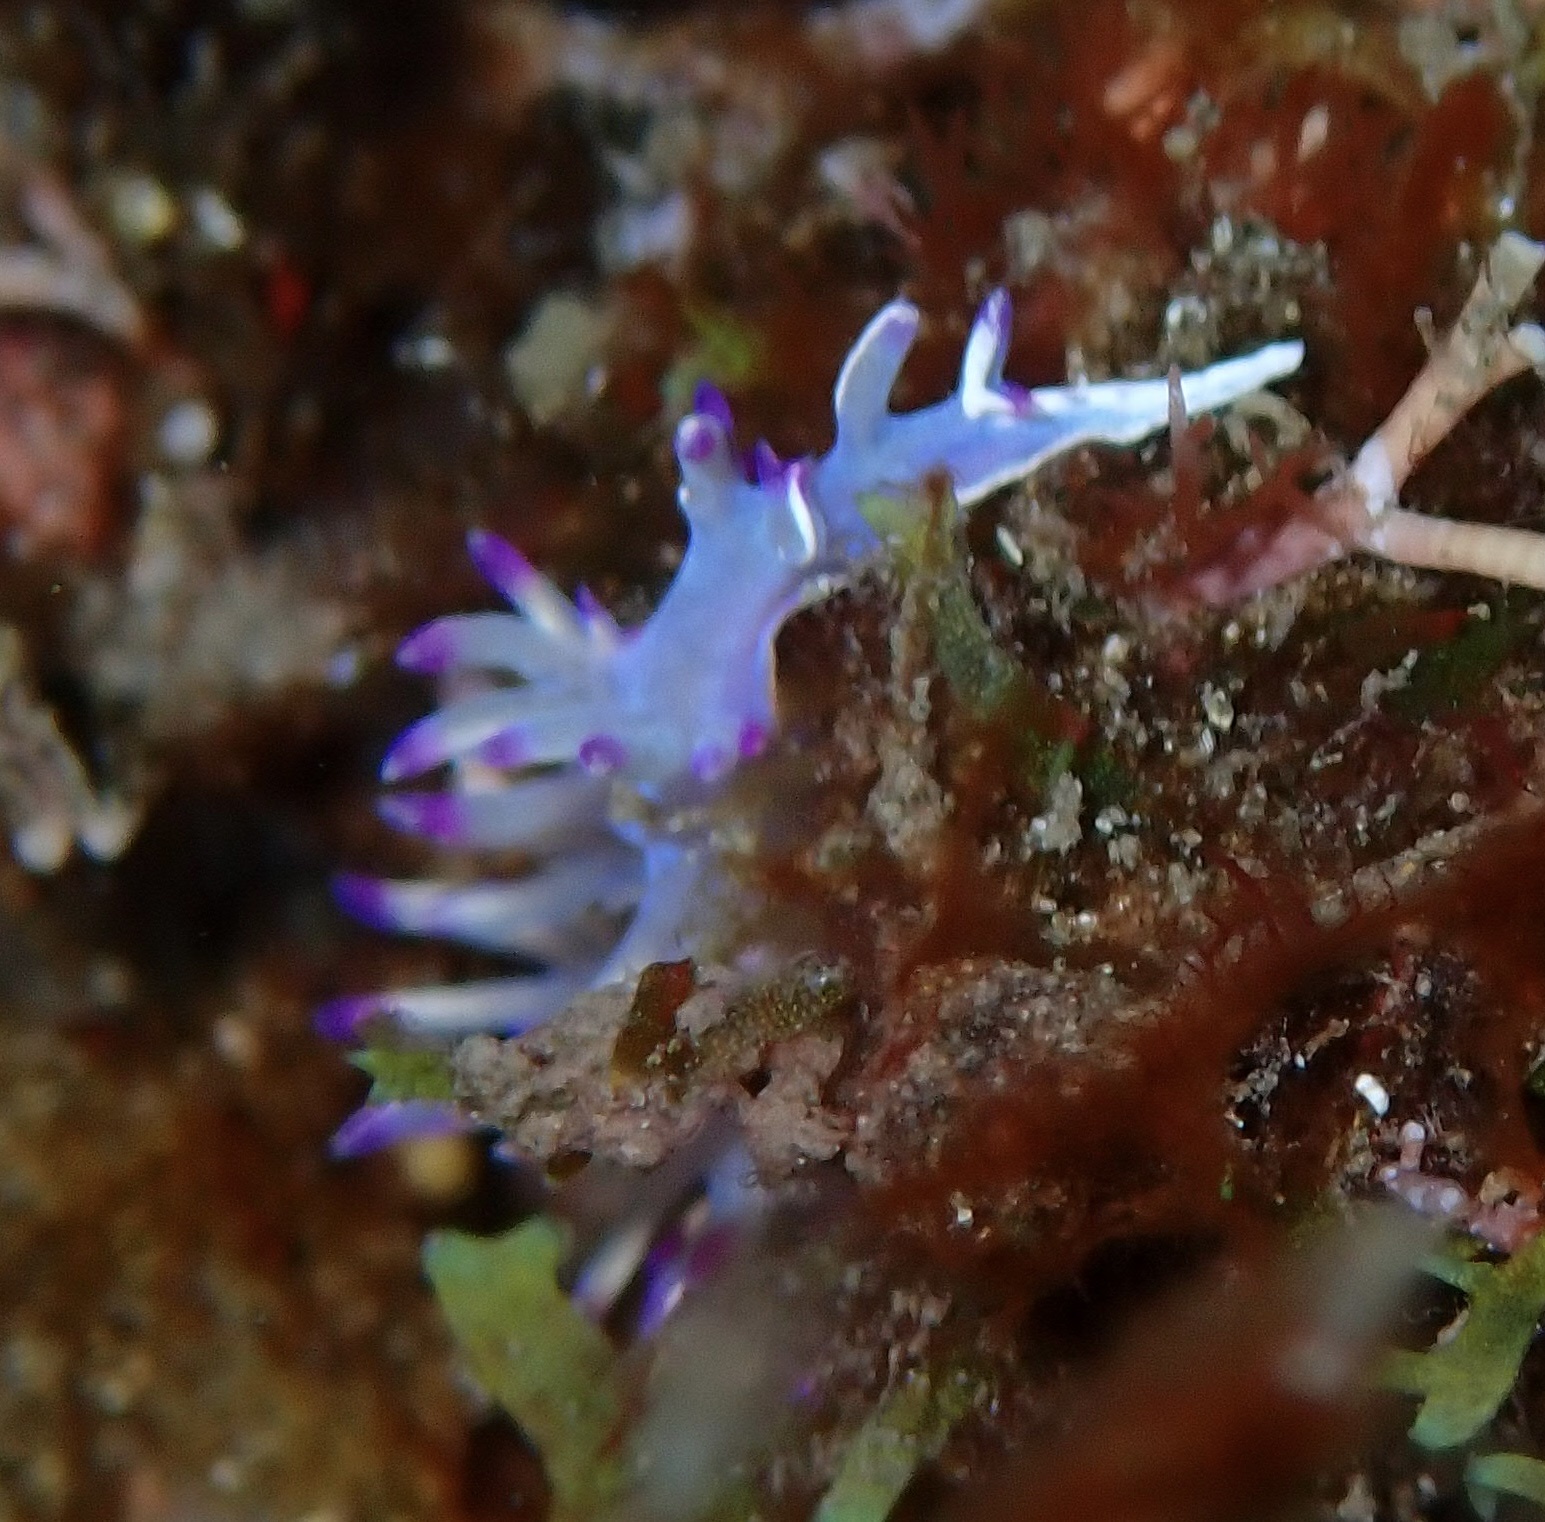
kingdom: Animalia
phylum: Mollusca
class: Gastropoda
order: Nudibranchia
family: Flabellinidae
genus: Flabellina
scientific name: Flabellina llerae
